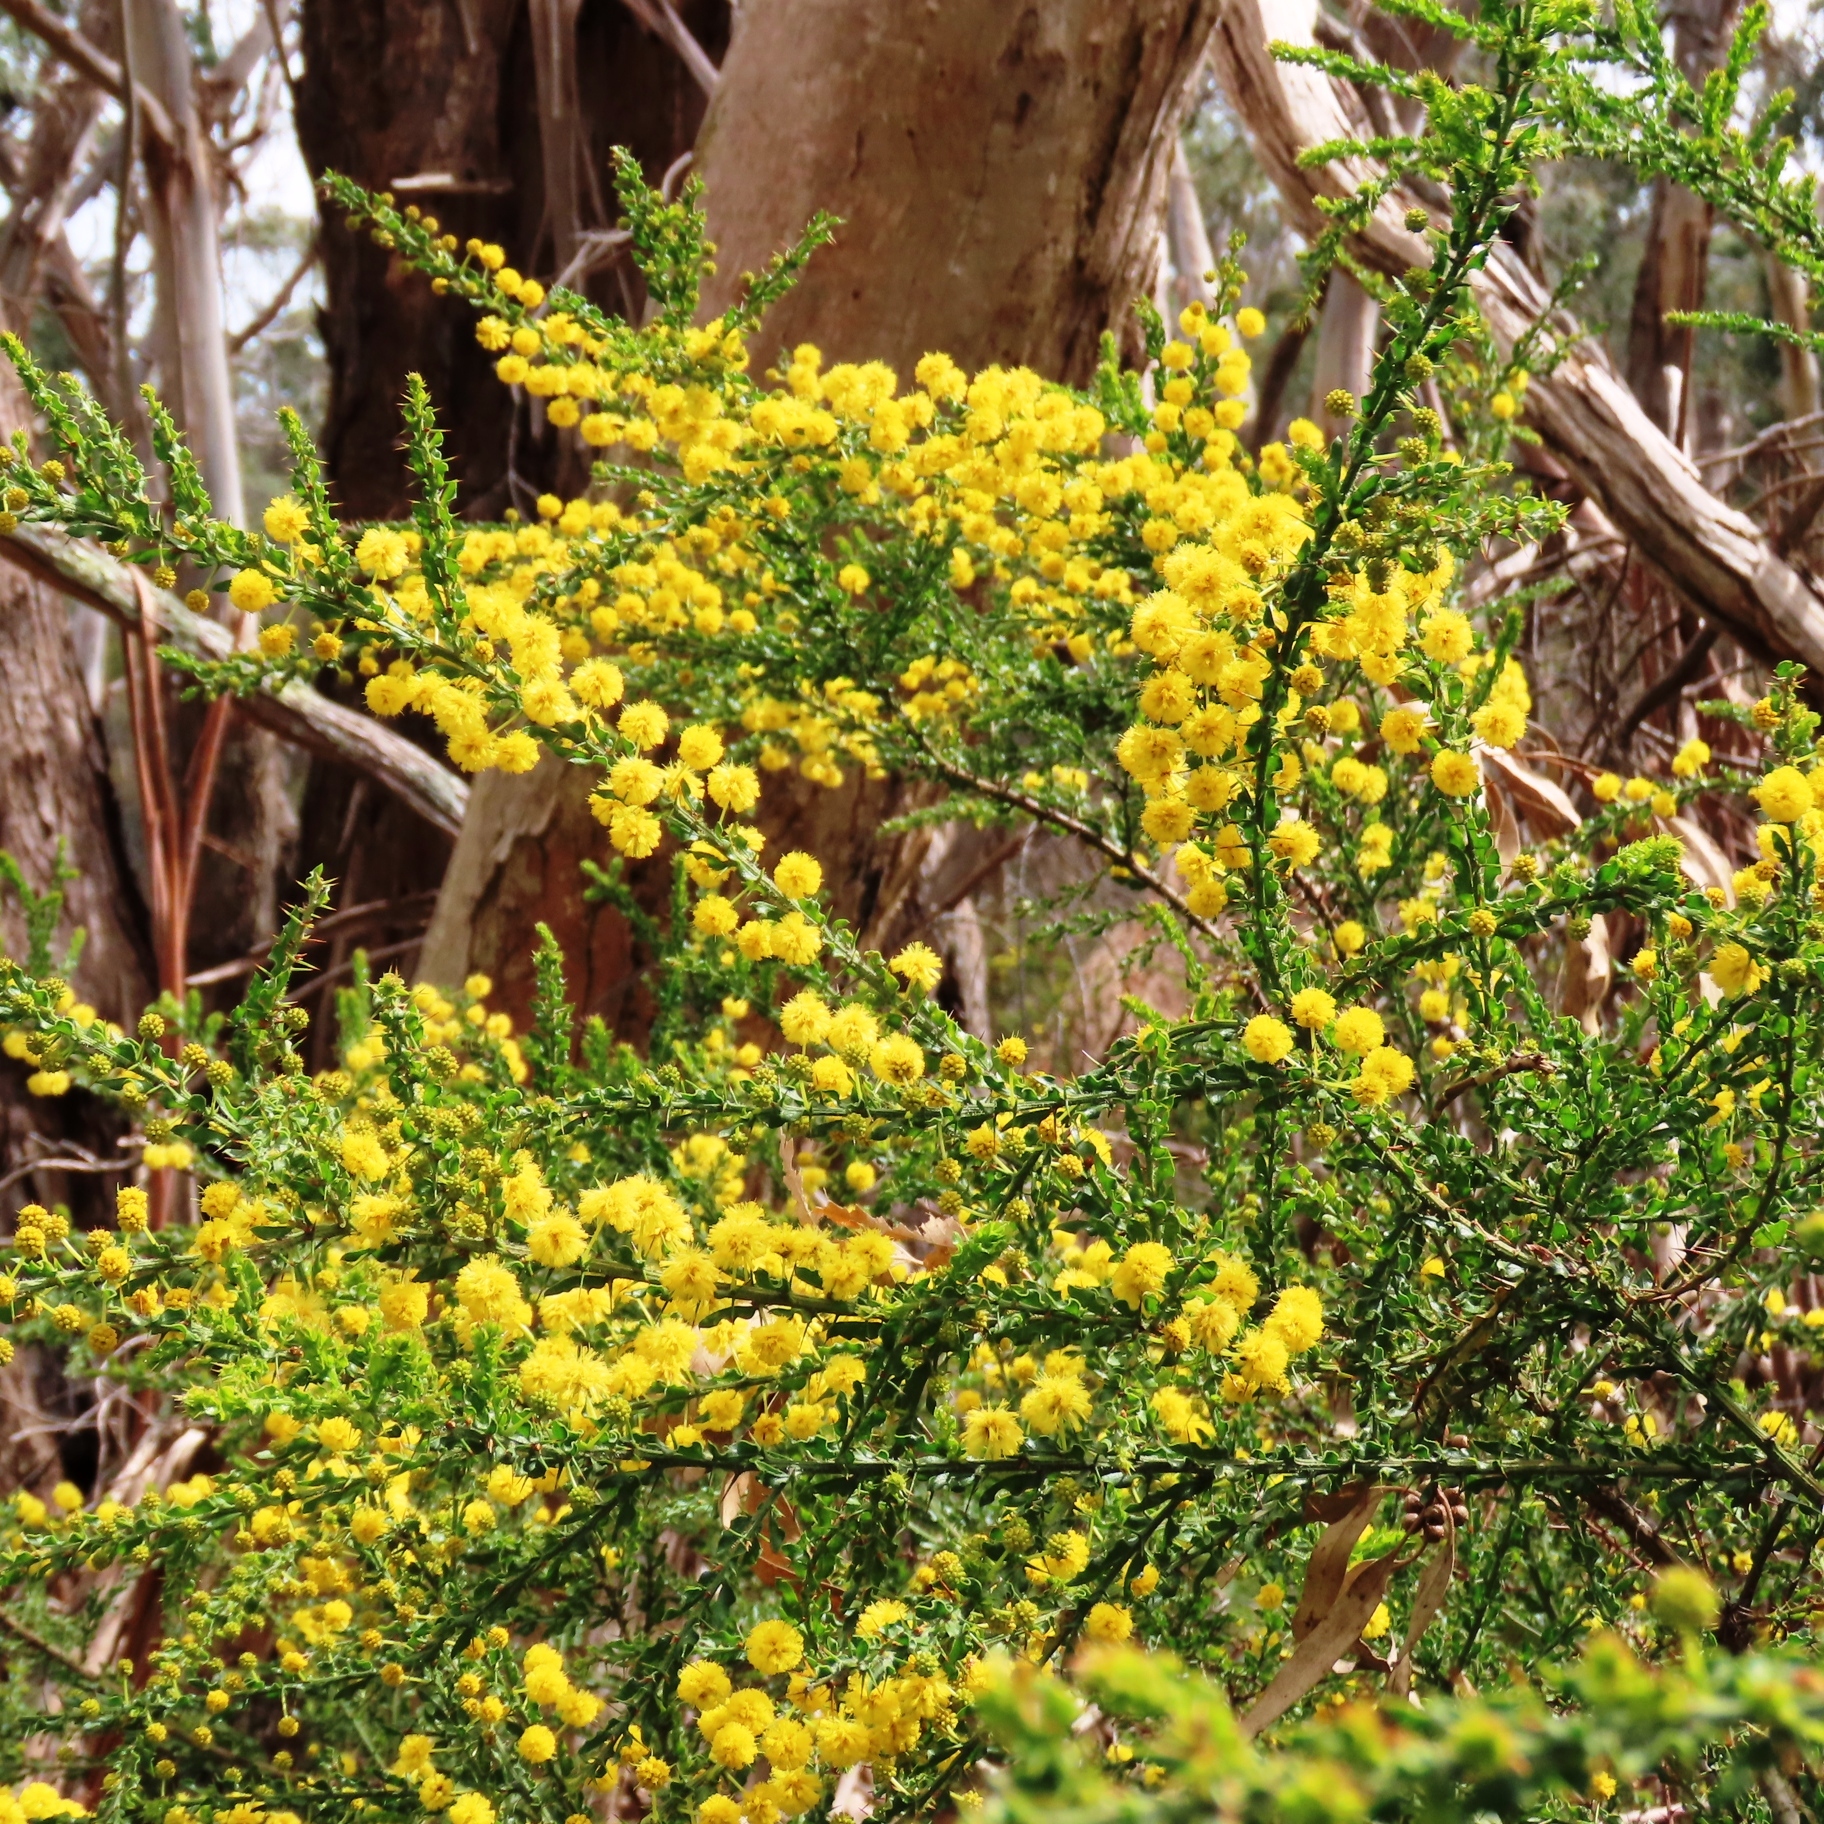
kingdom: Plantae
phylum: Tracheophyta
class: Magnoliopsida
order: Fabales
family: Fabaceae
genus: Acacia
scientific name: Acacia paradoxa
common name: Paradox acacia
